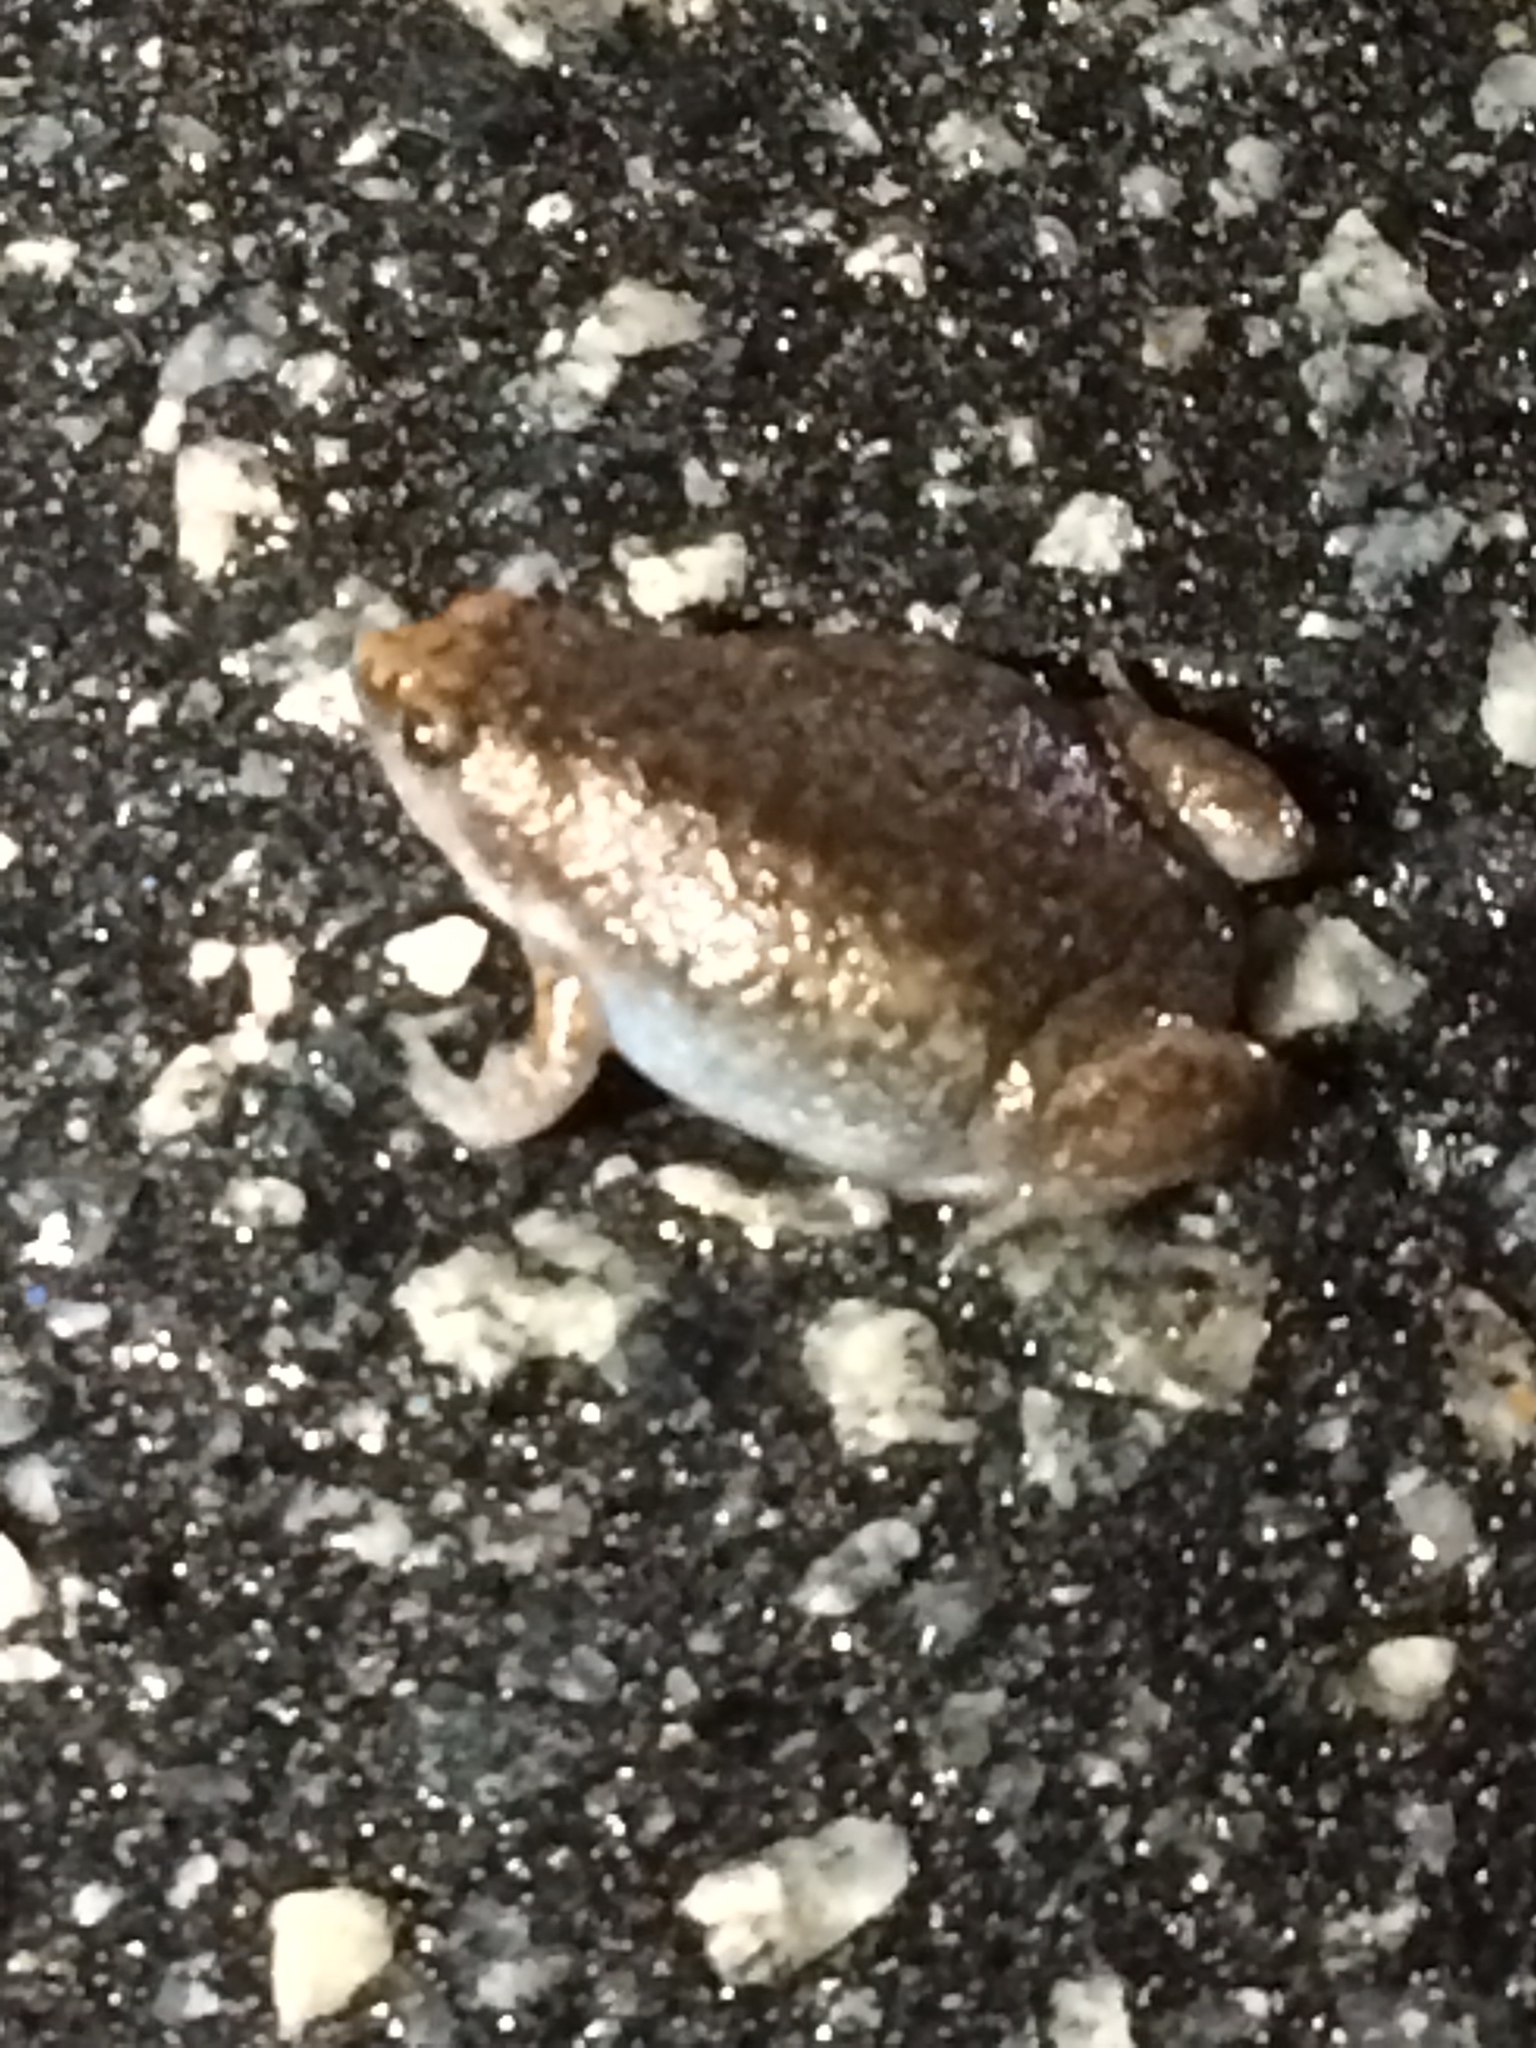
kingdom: Animalia
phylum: Chordata
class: Amphibia
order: Anura
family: Microhylidae
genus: Gastrophryne
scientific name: Gastrophryne carolinensis
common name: Eastern narrowmouth toad
